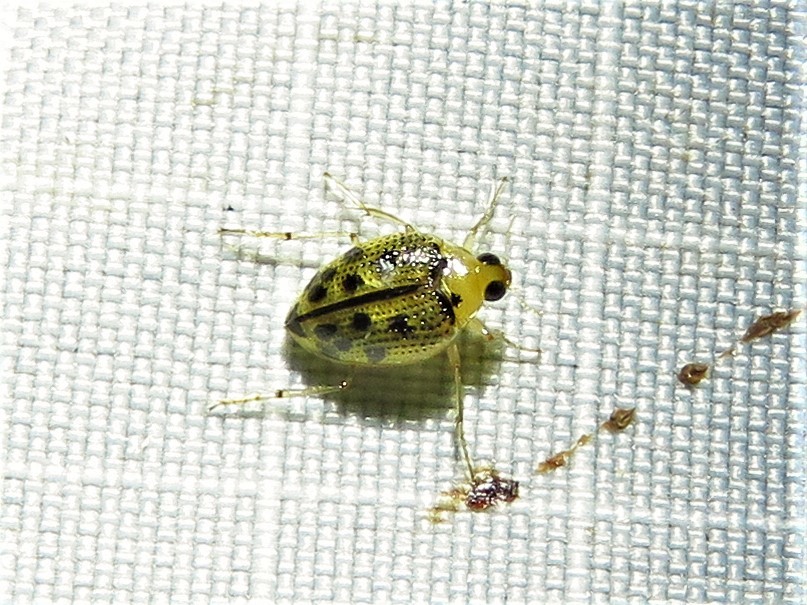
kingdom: Animalia
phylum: Arthropoda
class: Insecta
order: Coleoptera
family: Haliplidae
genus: Peltodytes
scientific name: Peltodytes litoralis
